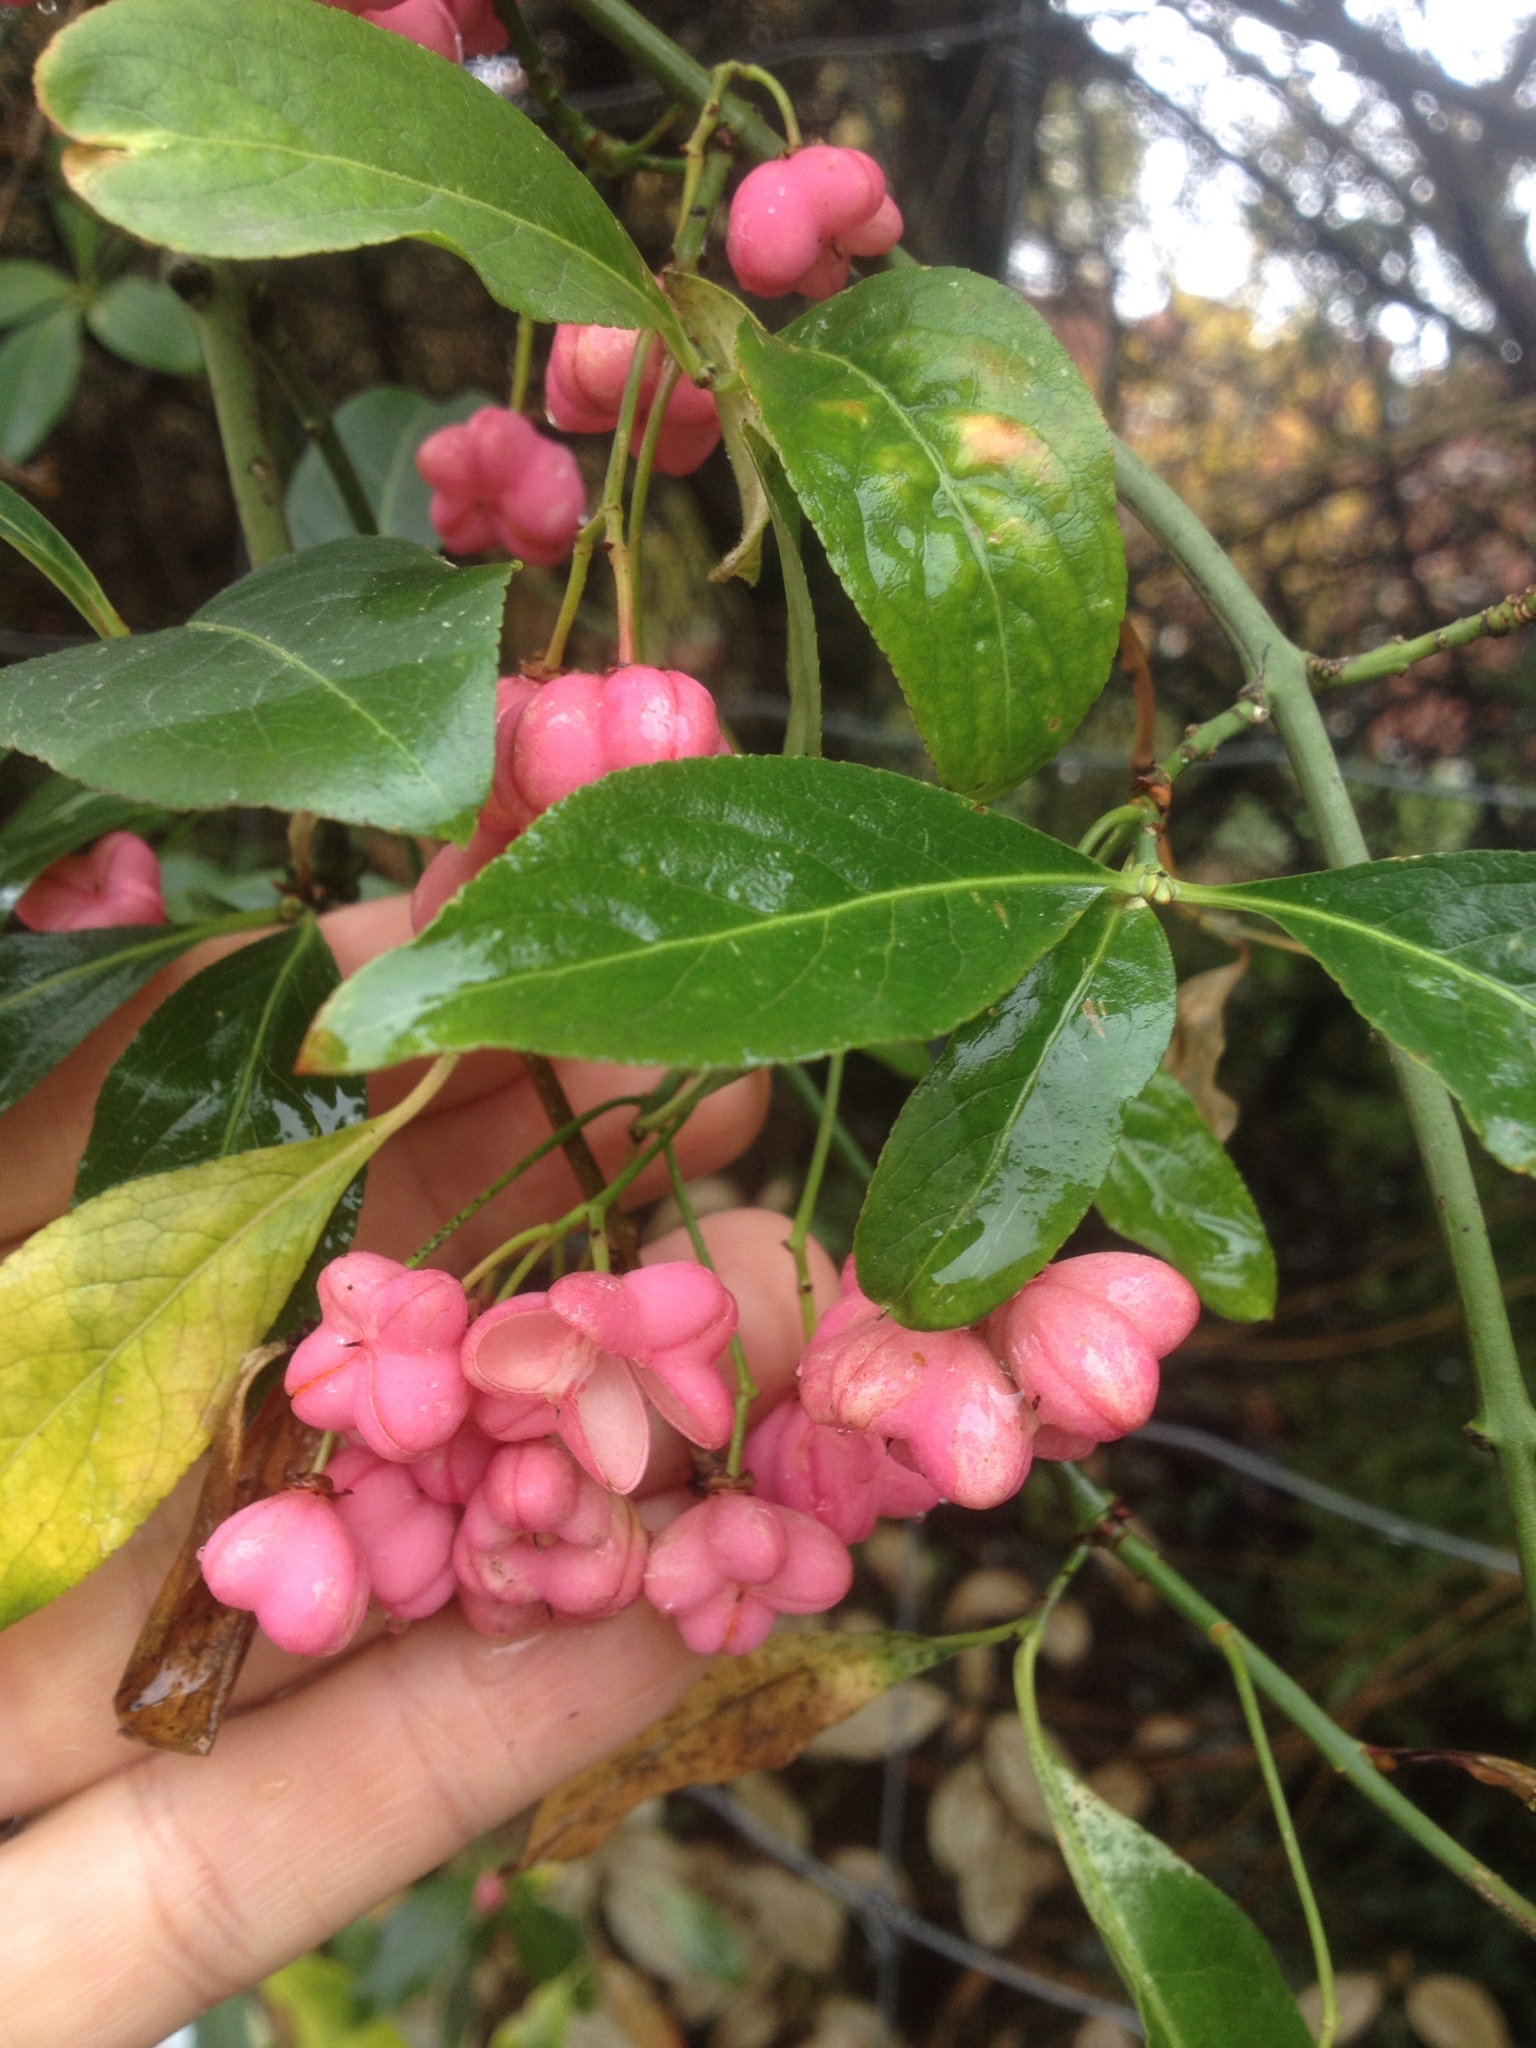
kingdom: Plantae
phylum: Tracheophyta
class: Magnoliopsida
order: Celastrales
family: Celastraceae
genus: Euonymus
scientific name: Euonymus europaeus
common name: Spindle
